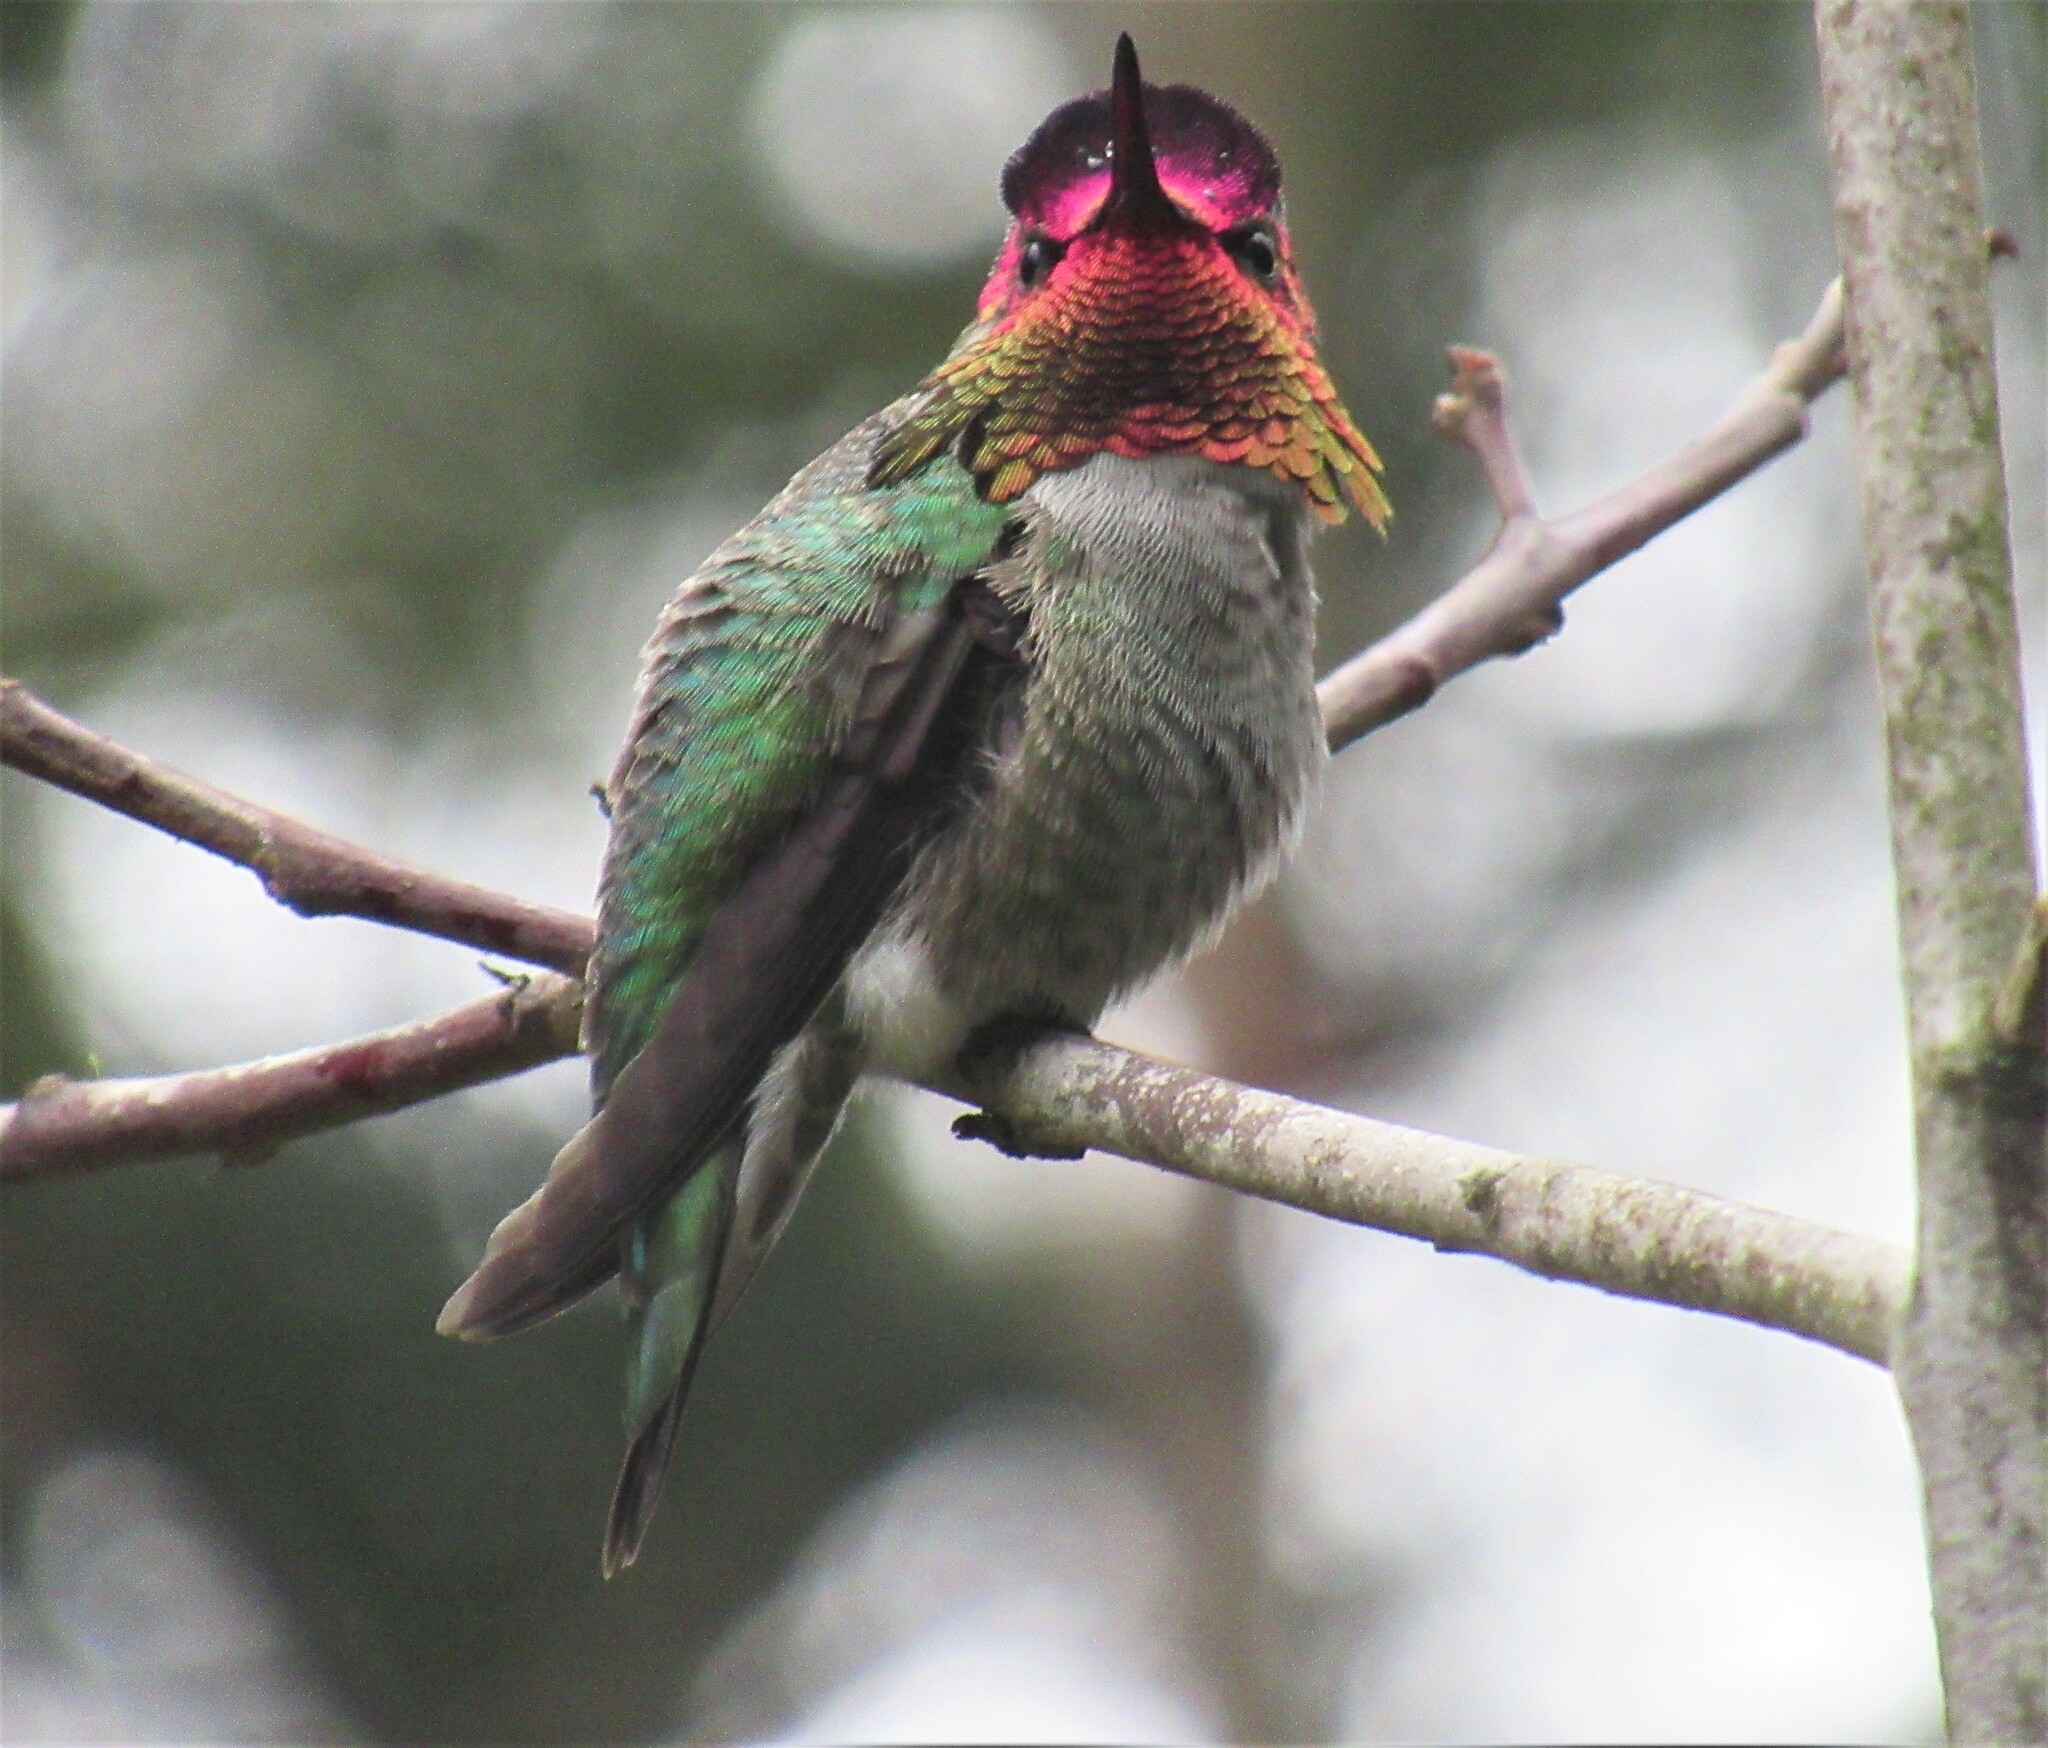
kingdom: Animalia
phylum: Chordata
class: Aves
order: Apodiformes
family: Trochilidae
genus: Calypte
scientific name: Calypte anna
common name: Anna's hummingbird
